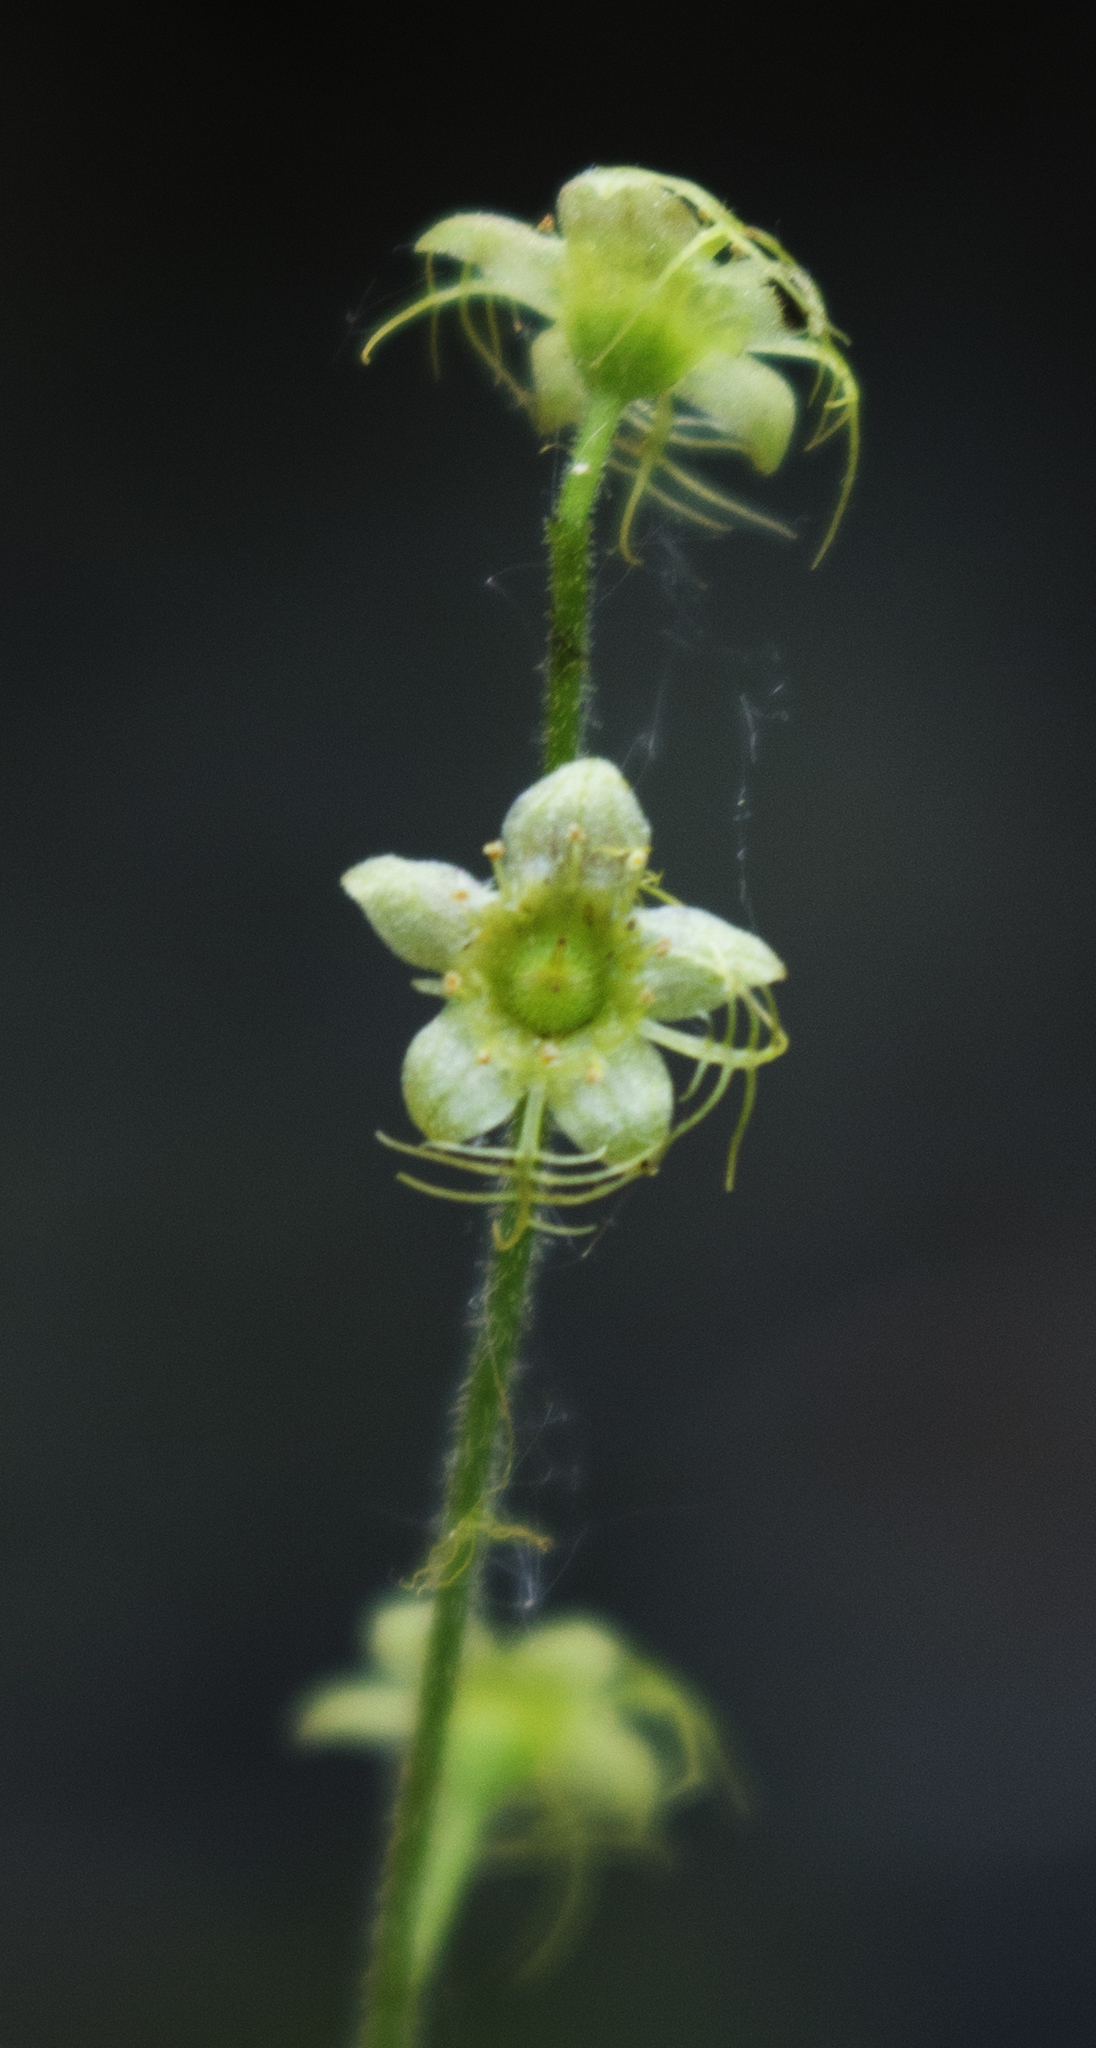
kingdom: Plantae
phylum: Tracheophyta
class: Magnoliopsida
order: Saxifragales
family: Saxifragaceae
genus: Mitella
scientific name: Mitella nuda
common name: Bare-stemmed bishop's-cap
